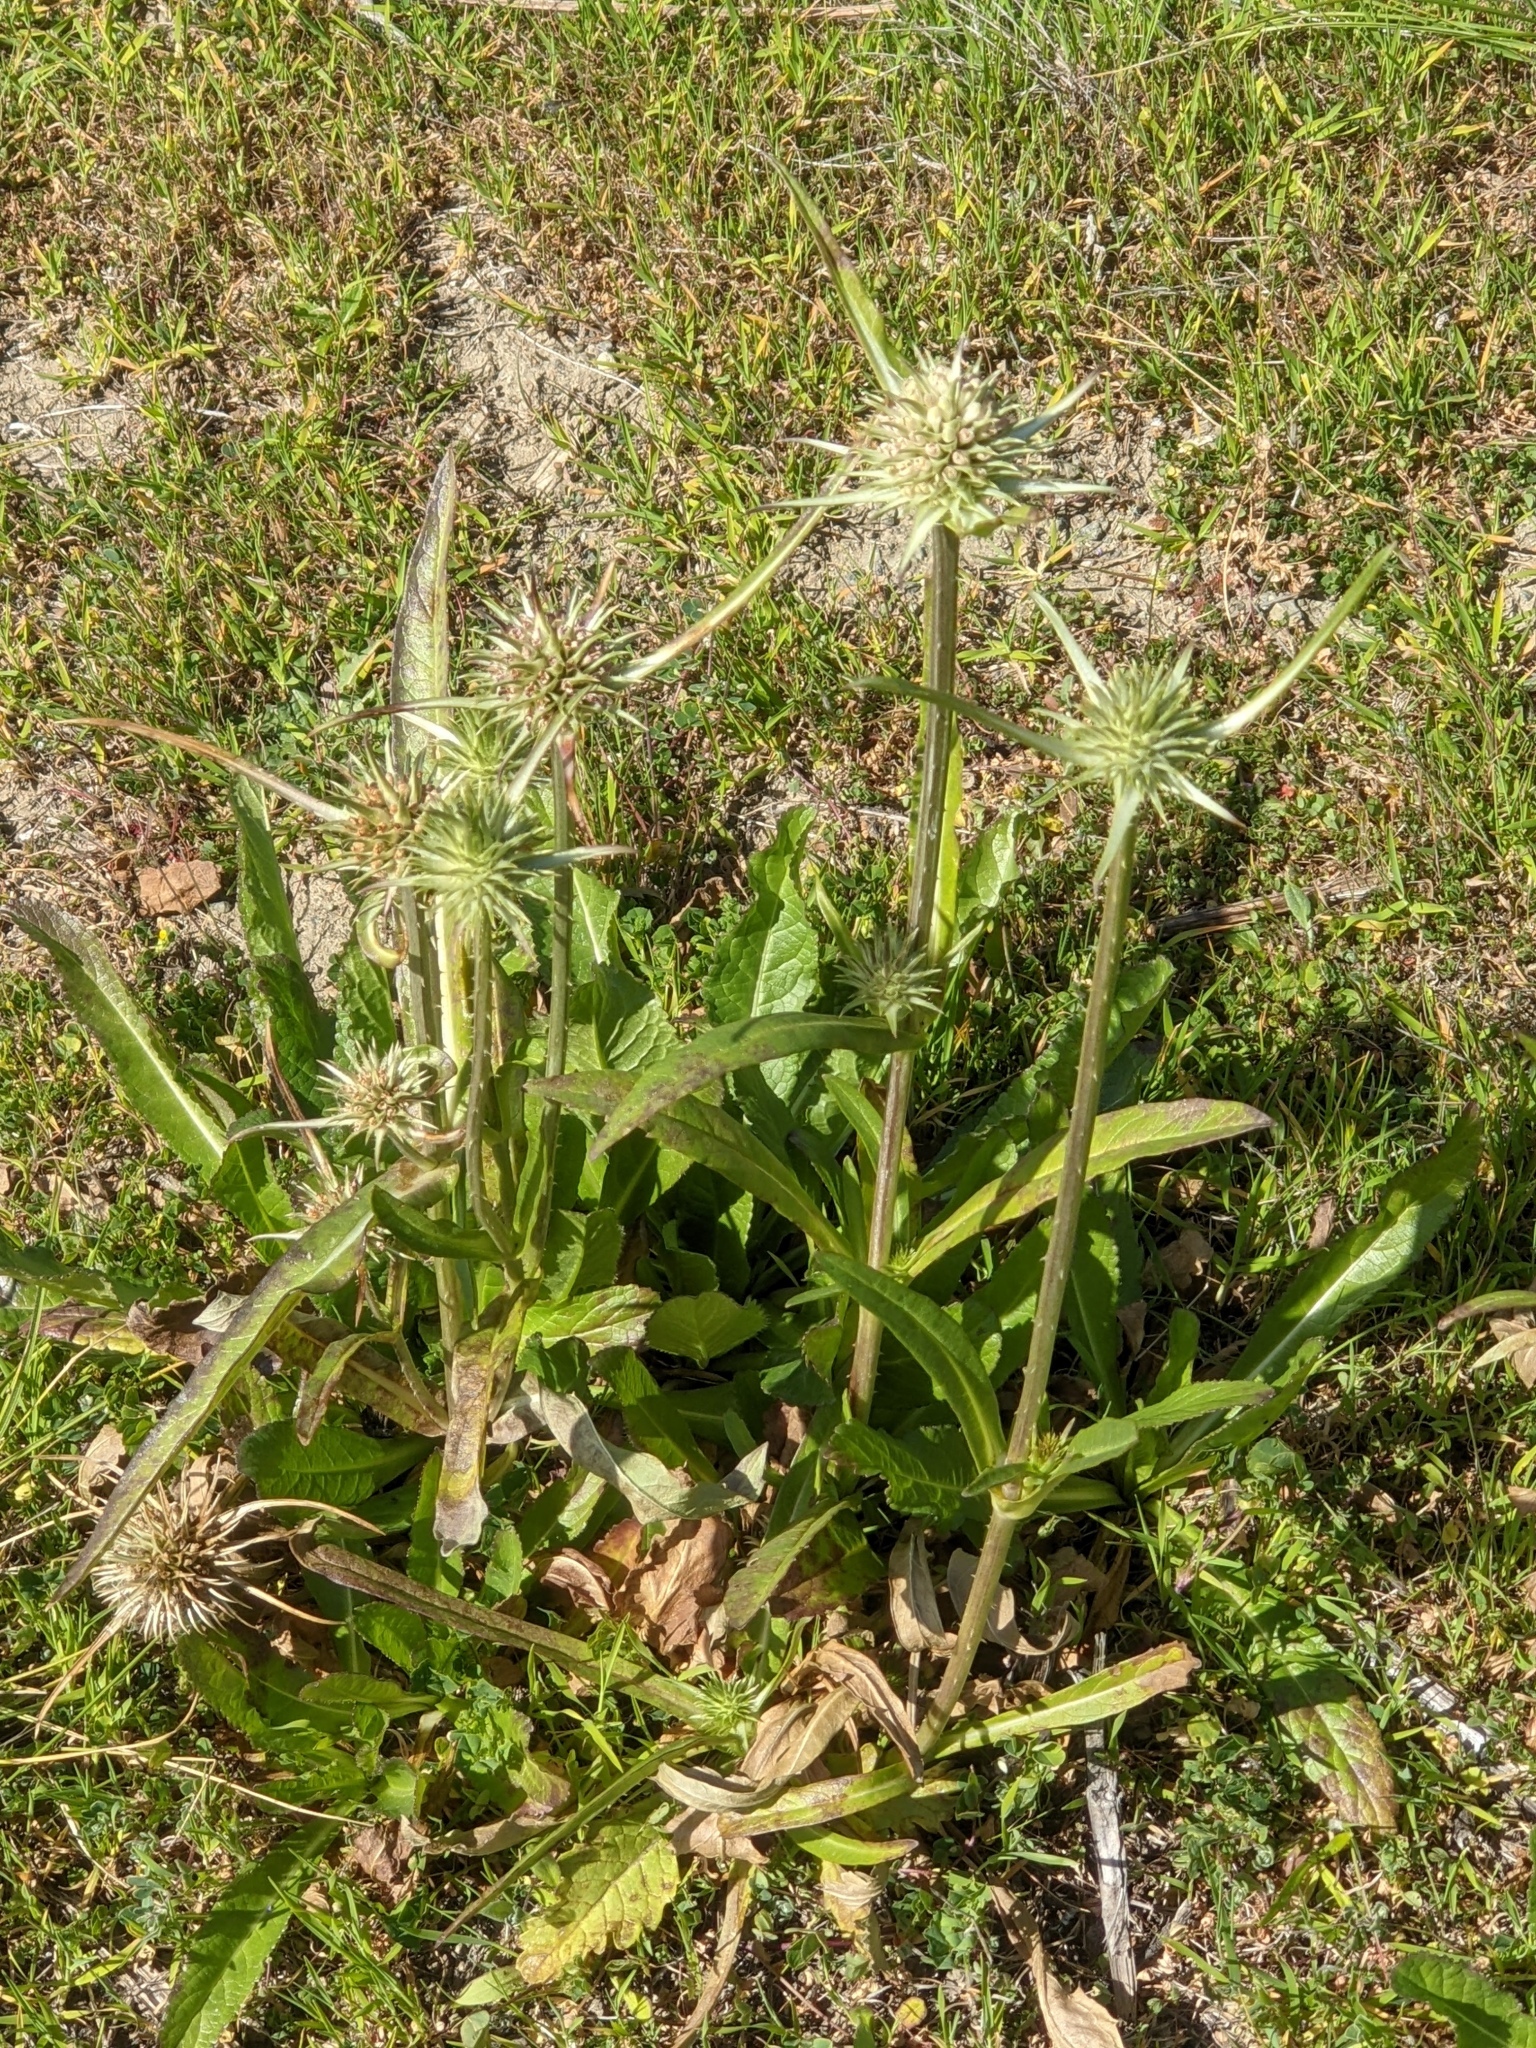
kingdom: Plantae
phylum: Tracheophyta
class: Magnoliopsida
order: Dipsacales
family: Caprifoliaceae
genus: Dipsacus
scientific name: Dipsacus sativus
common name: Fuller's teasel
